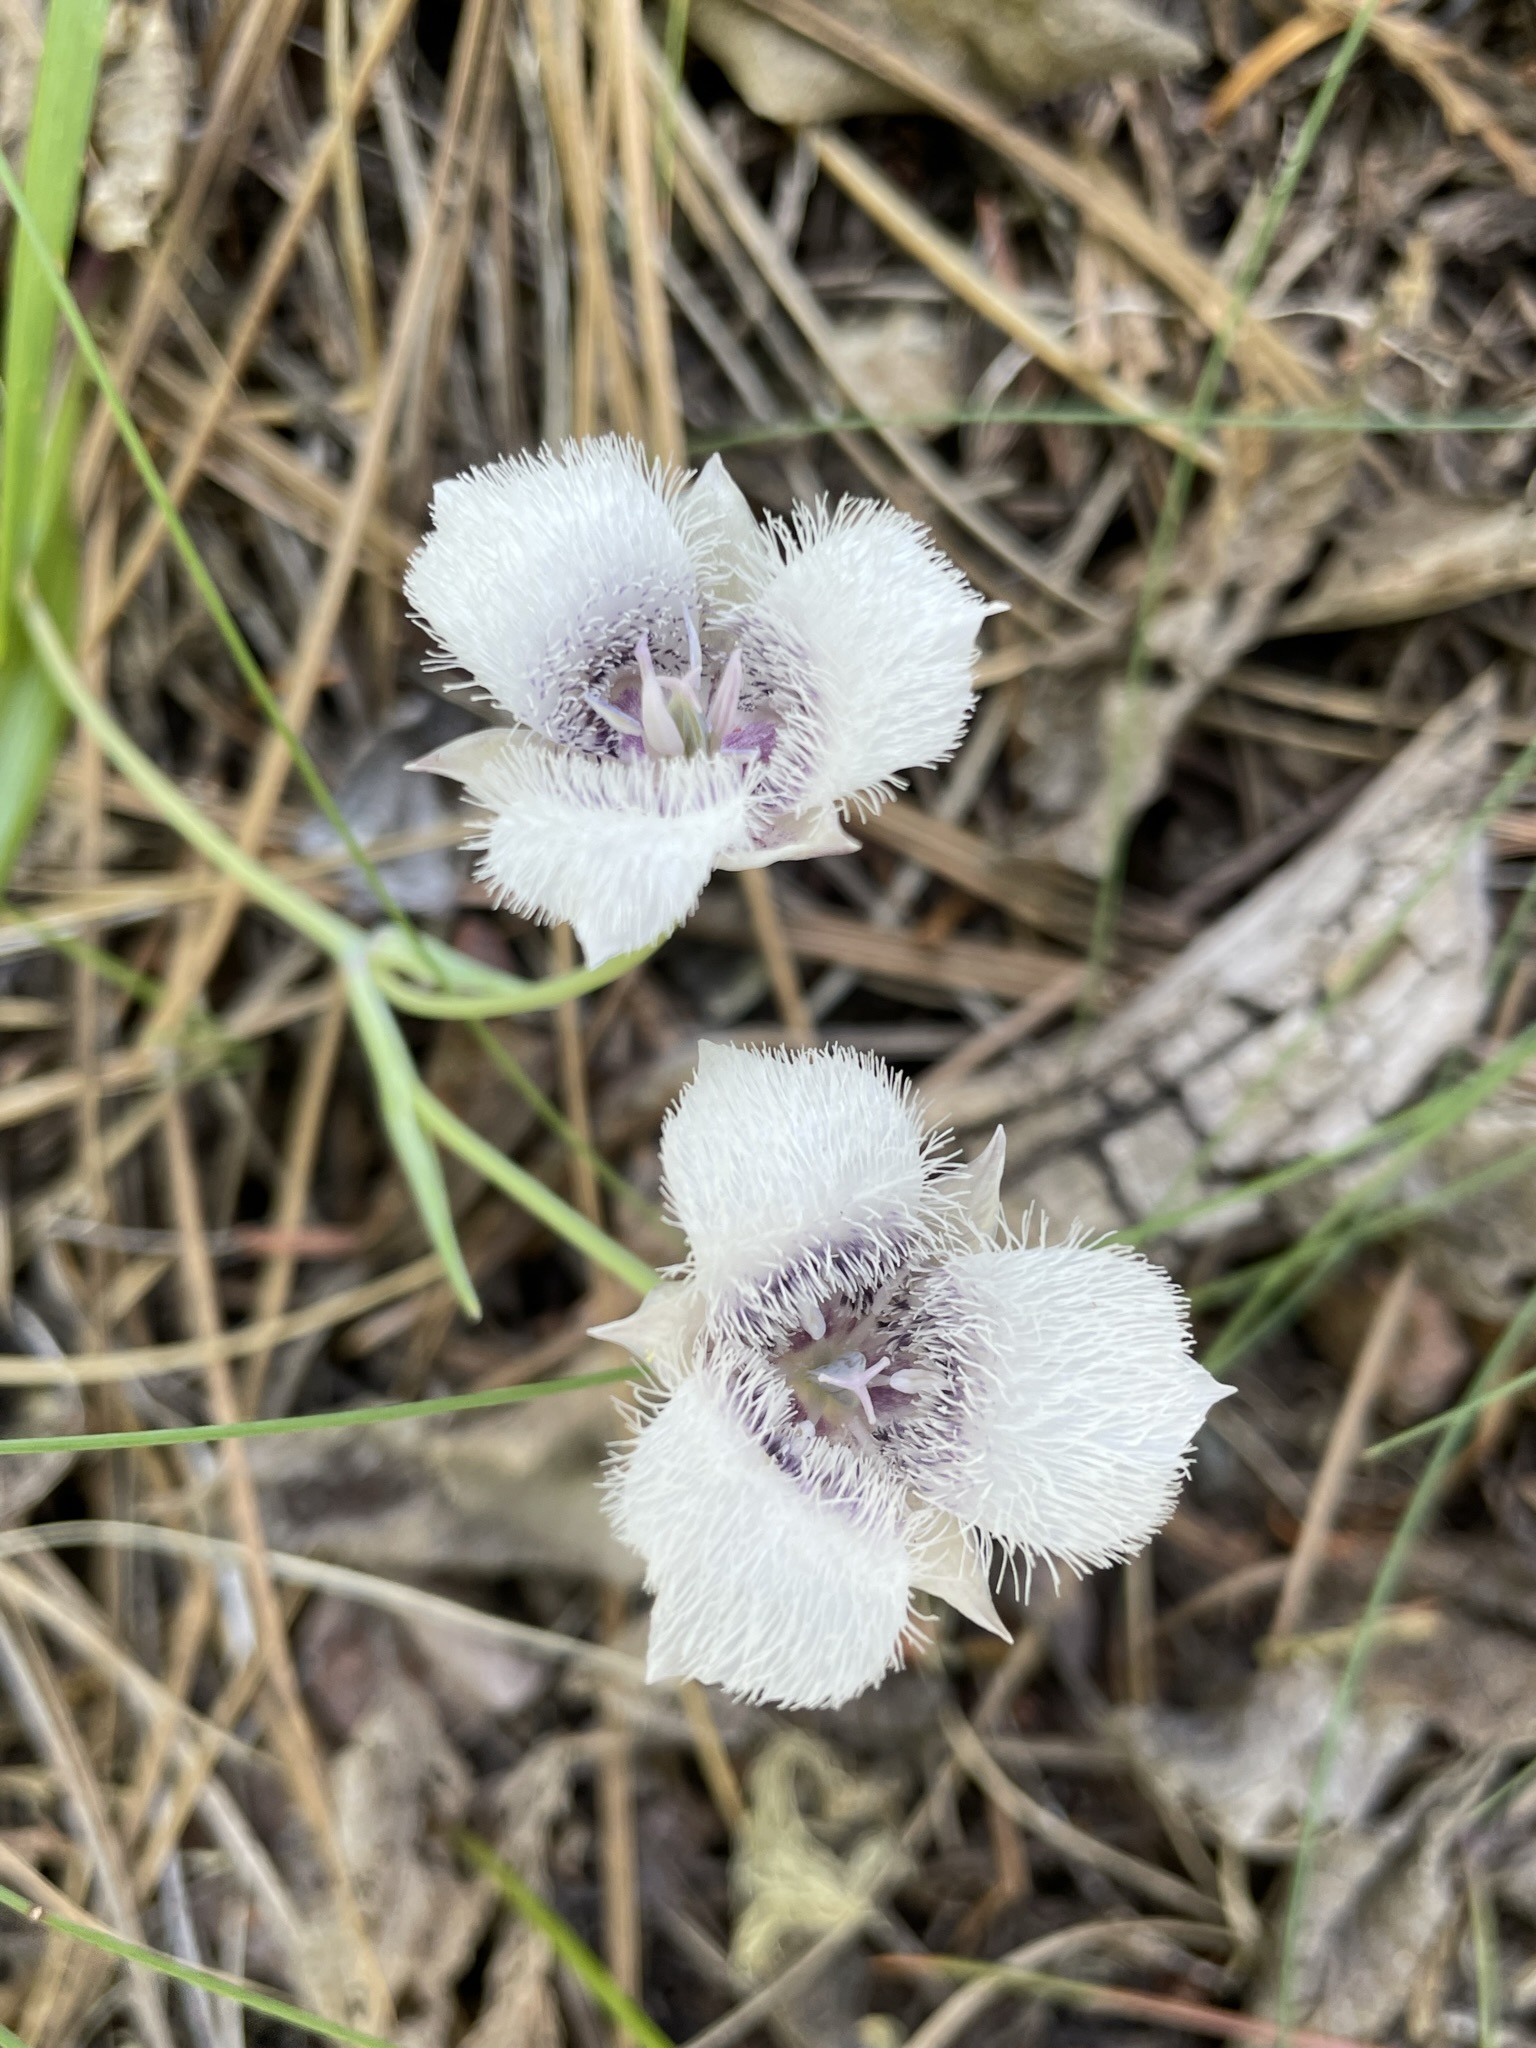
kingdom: Plantae
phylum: Tracheophyta
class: Liliopsida
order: Liliales
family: Liliaceae
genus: Calochortus
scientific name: Calochortus tolmiei
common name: Pussy-ears
